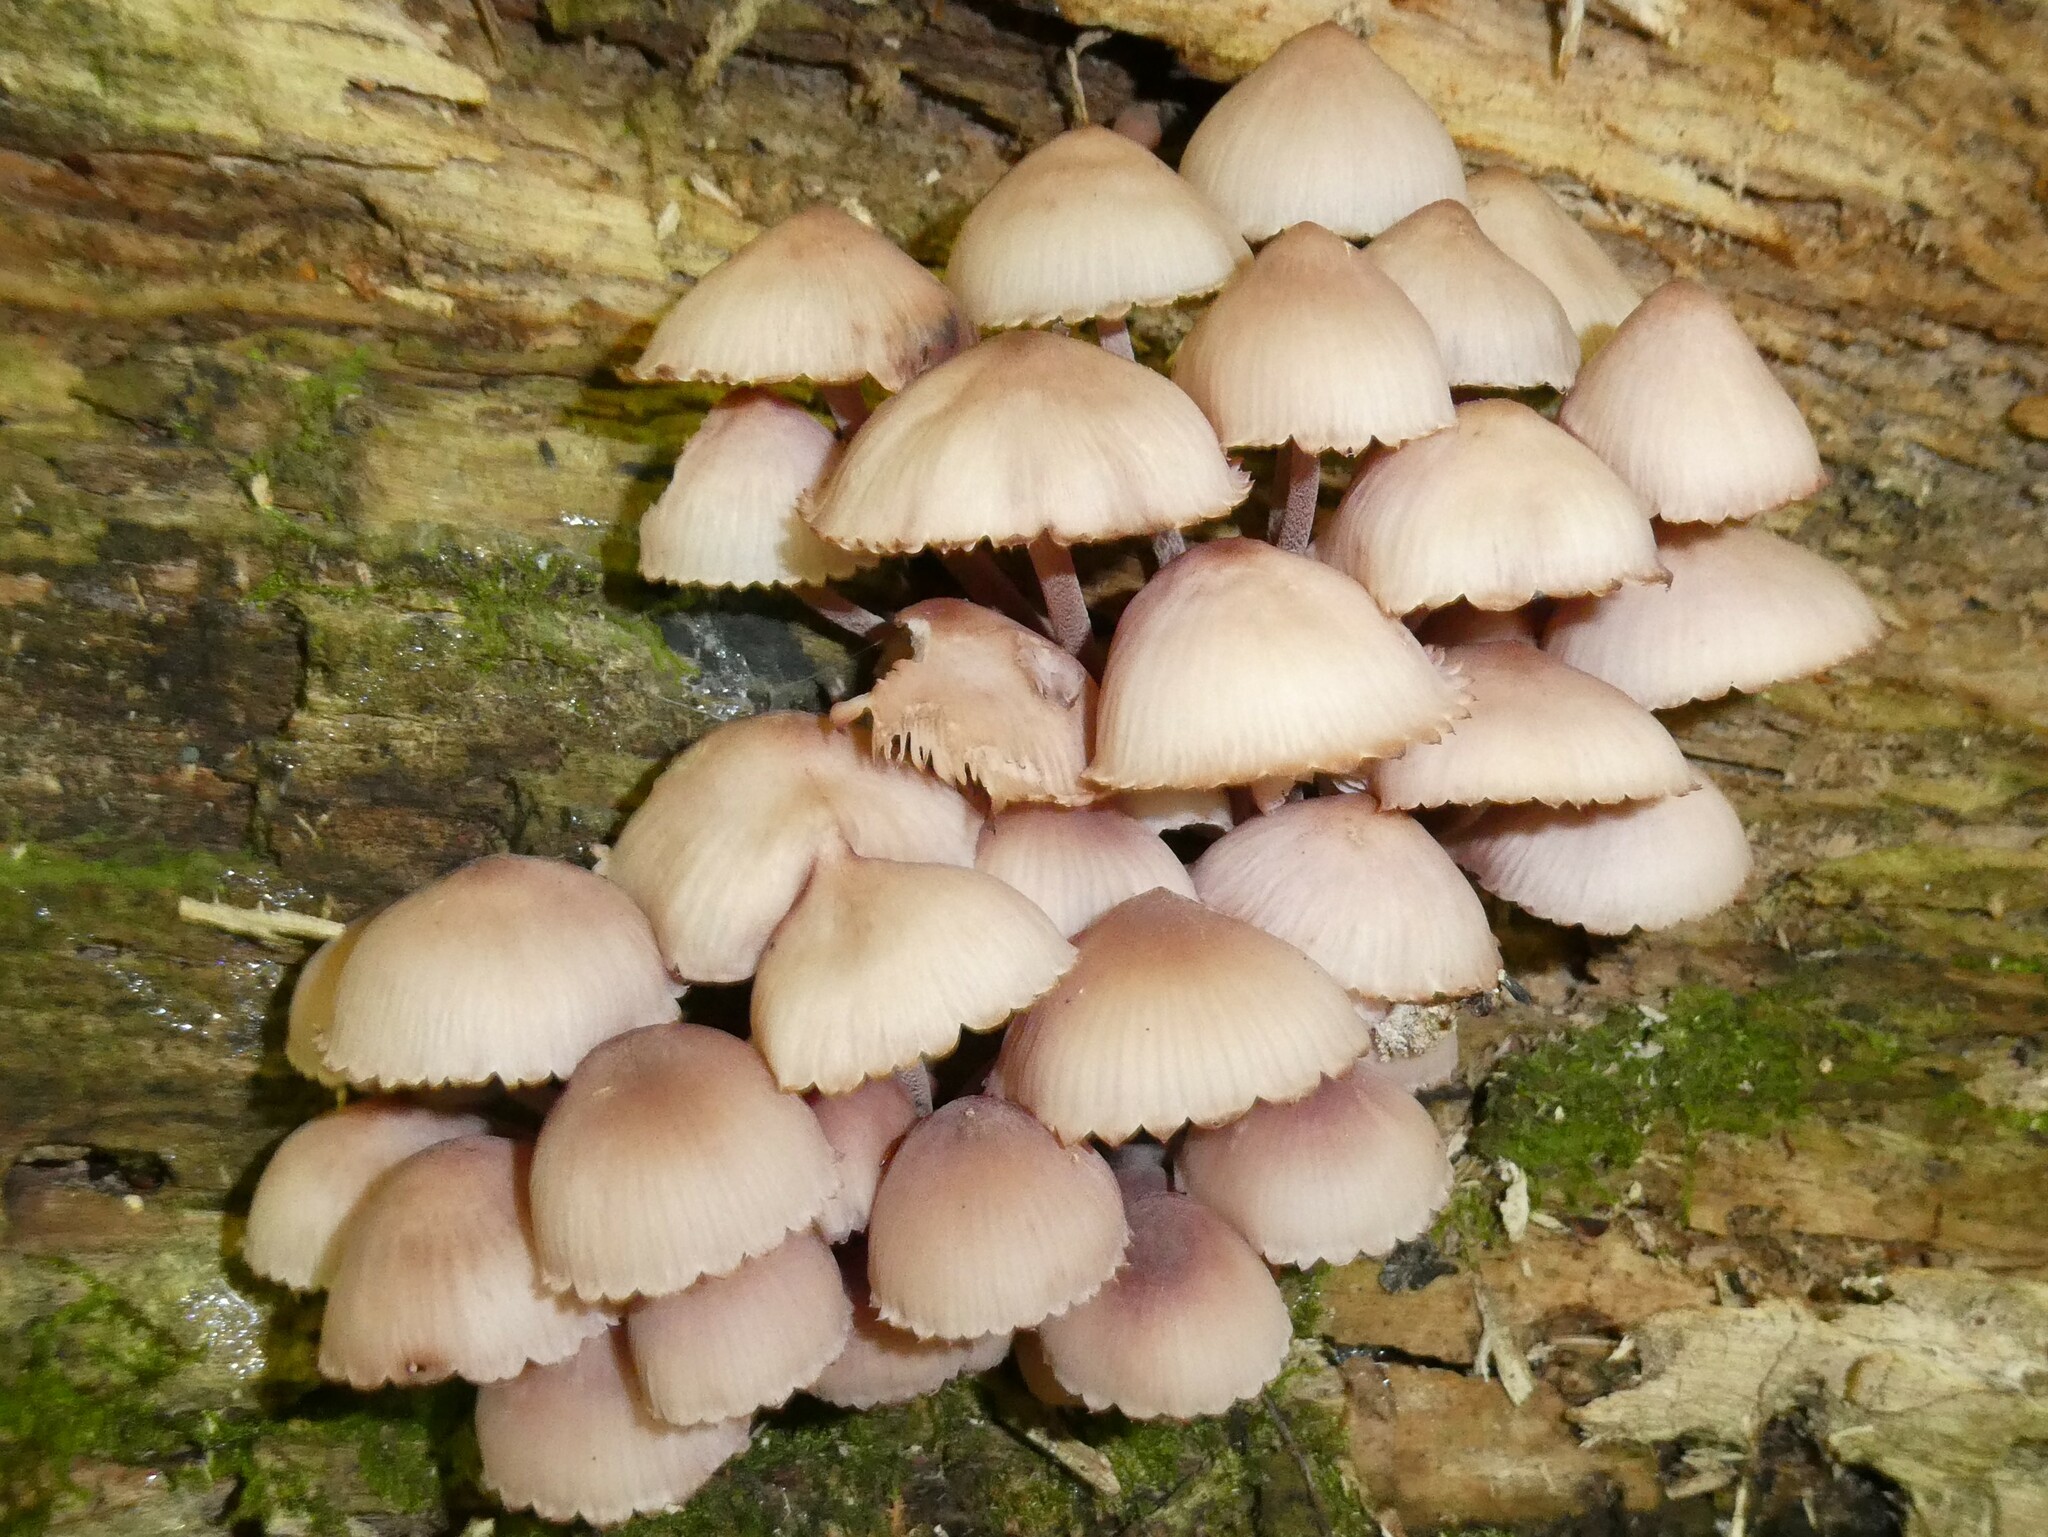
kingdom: Fungi
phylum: Basidiomycota
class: Agaricomycetes
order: Agaricales
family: Mycenaceae
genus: Mycena
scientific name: Mycena haematopus
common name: Burgundydrop bonnet
